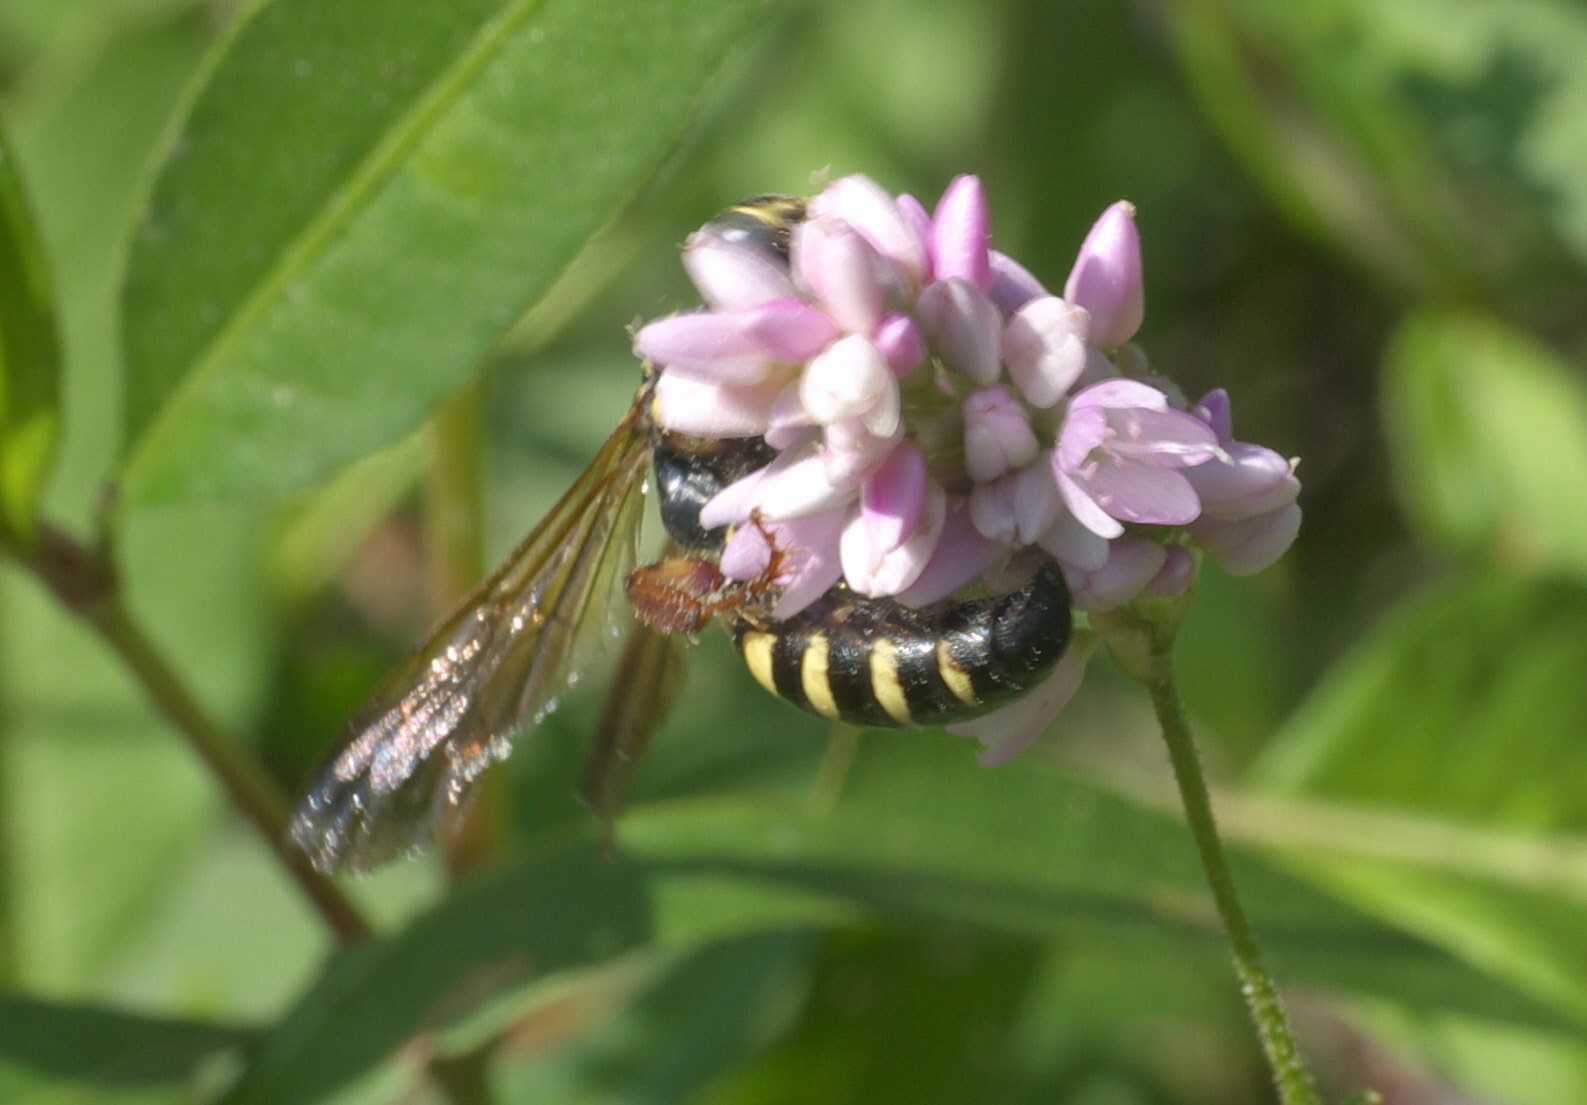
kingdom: Animalia
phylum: Arthropoda
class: Insecta
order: Hymenoptera
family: Tiphiidae
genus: Myzinum
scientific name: Myzinum quinquecinctum
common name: Five-banded thynnid wasp
